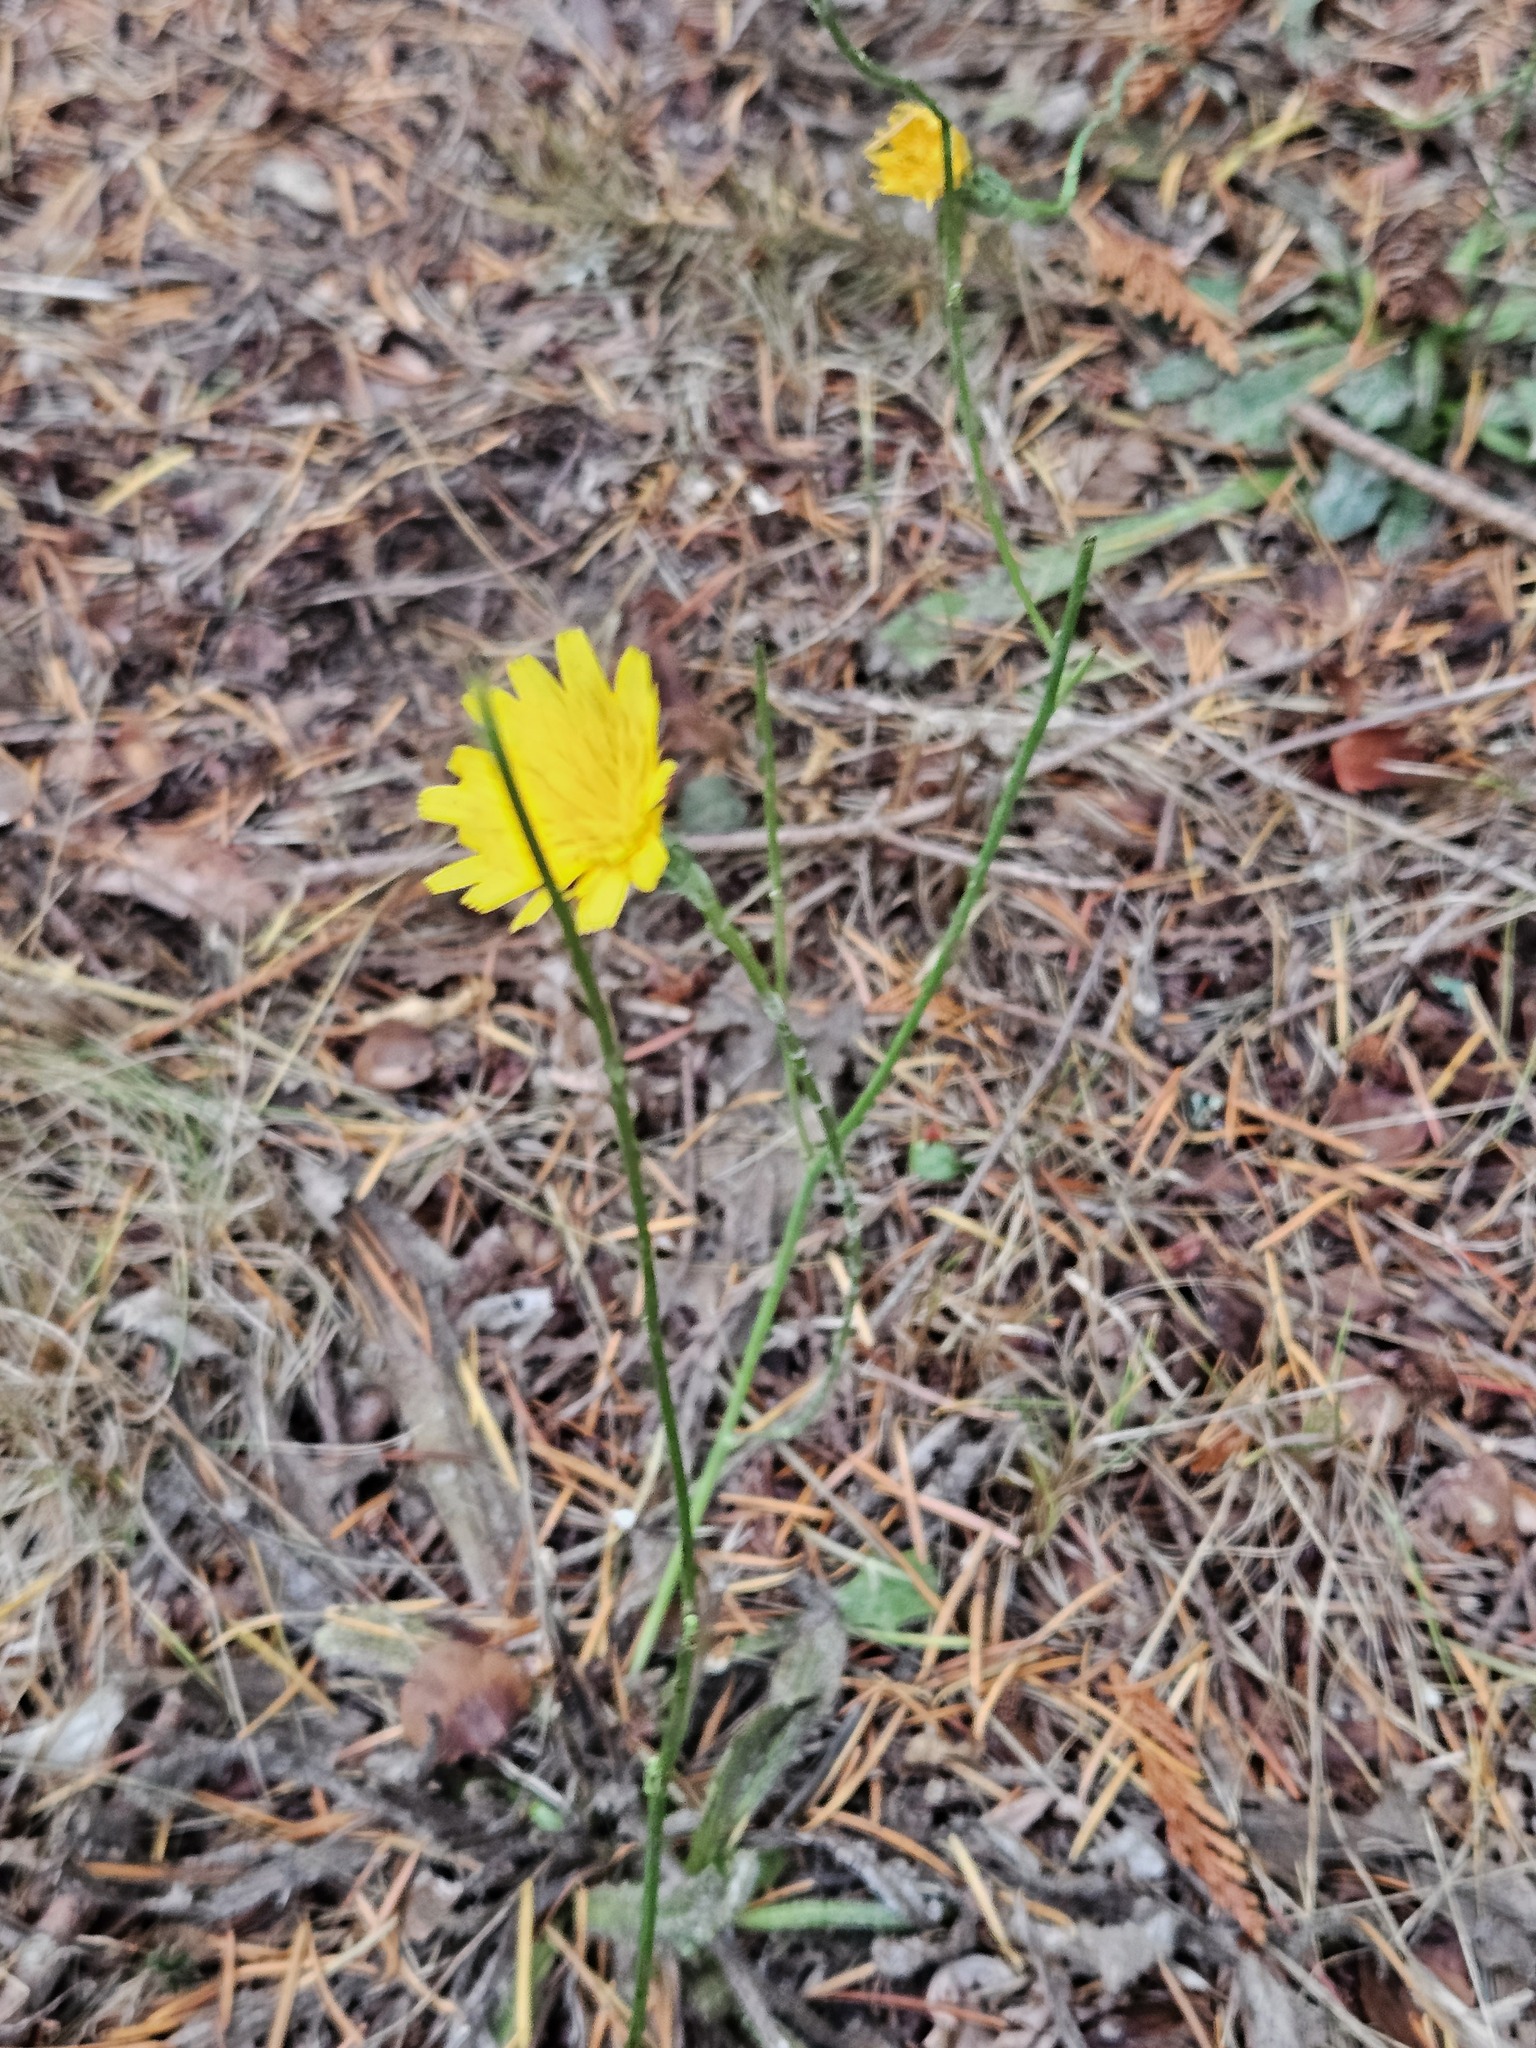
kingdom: Plantae
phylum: Tracheophyta
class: Magnoliopsida
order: Asterales
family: Asteraceae
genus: Hypochaeris
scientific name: Hypochaeris radicata
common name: Flatweed
